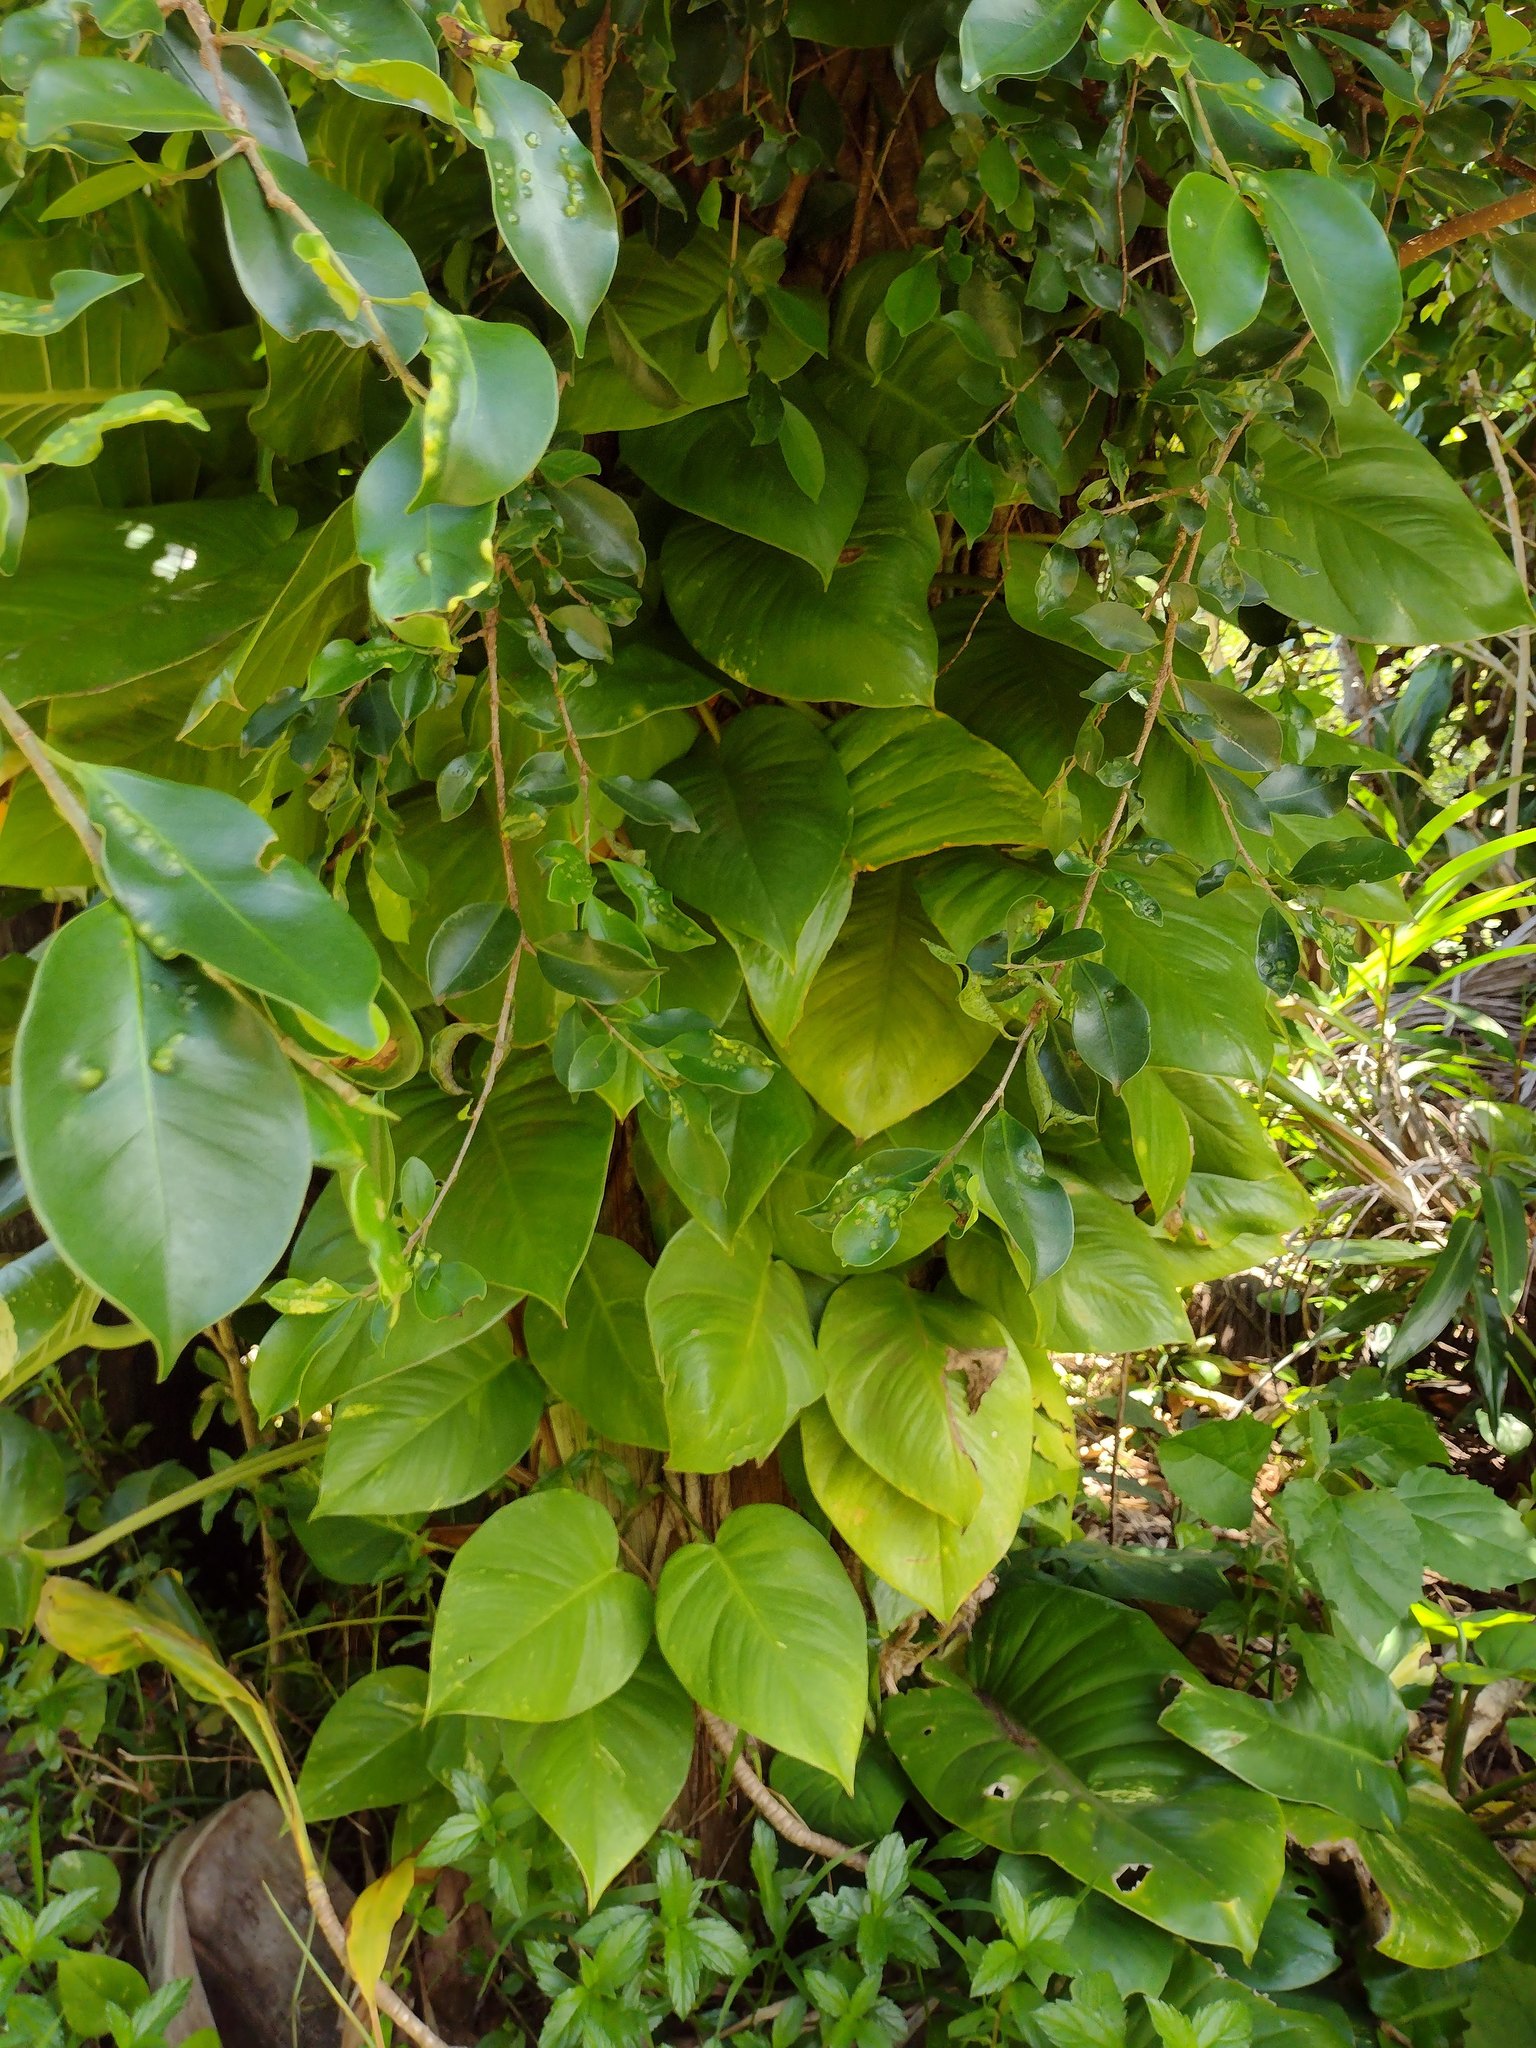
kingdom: Plantae
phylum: Tracheophyta
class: Liliopsida
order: Alismatales
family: Araceae
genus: Epipremnum
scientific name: Epipremnum aureum
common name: Golden hunter's-robe
